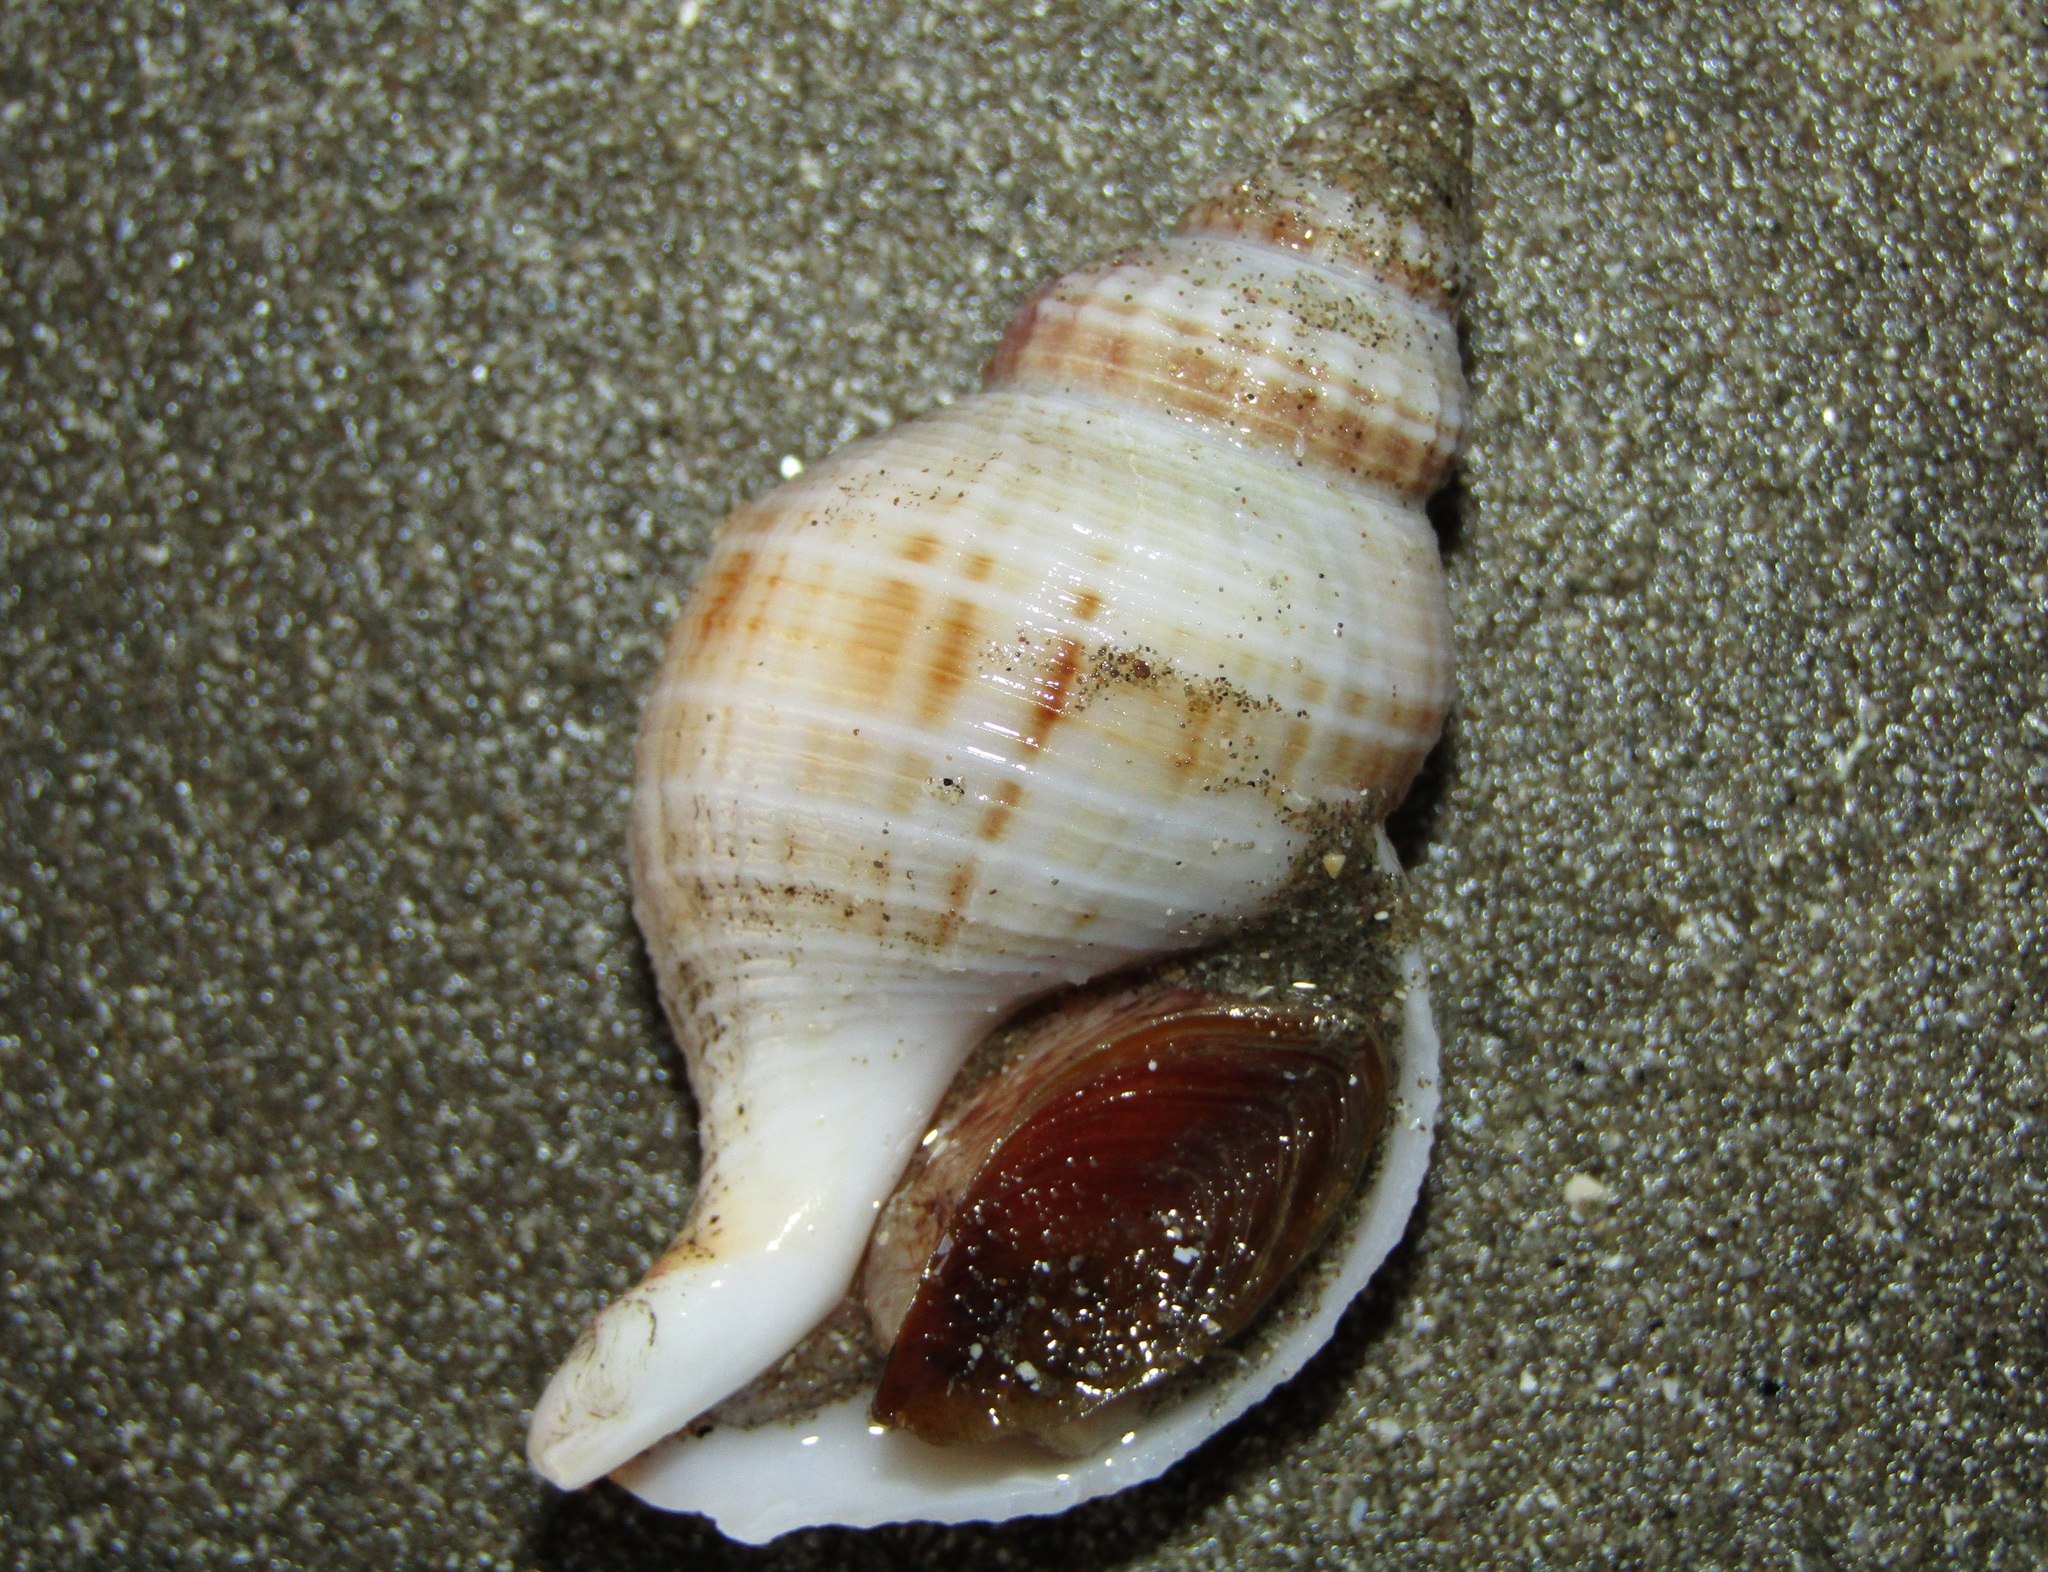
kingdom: Animalia
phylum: Mollusca
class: Gastropoda
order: Neogastropoda
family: Prosiphonidae
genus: Austrofusus
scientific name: Austrofusus glans
